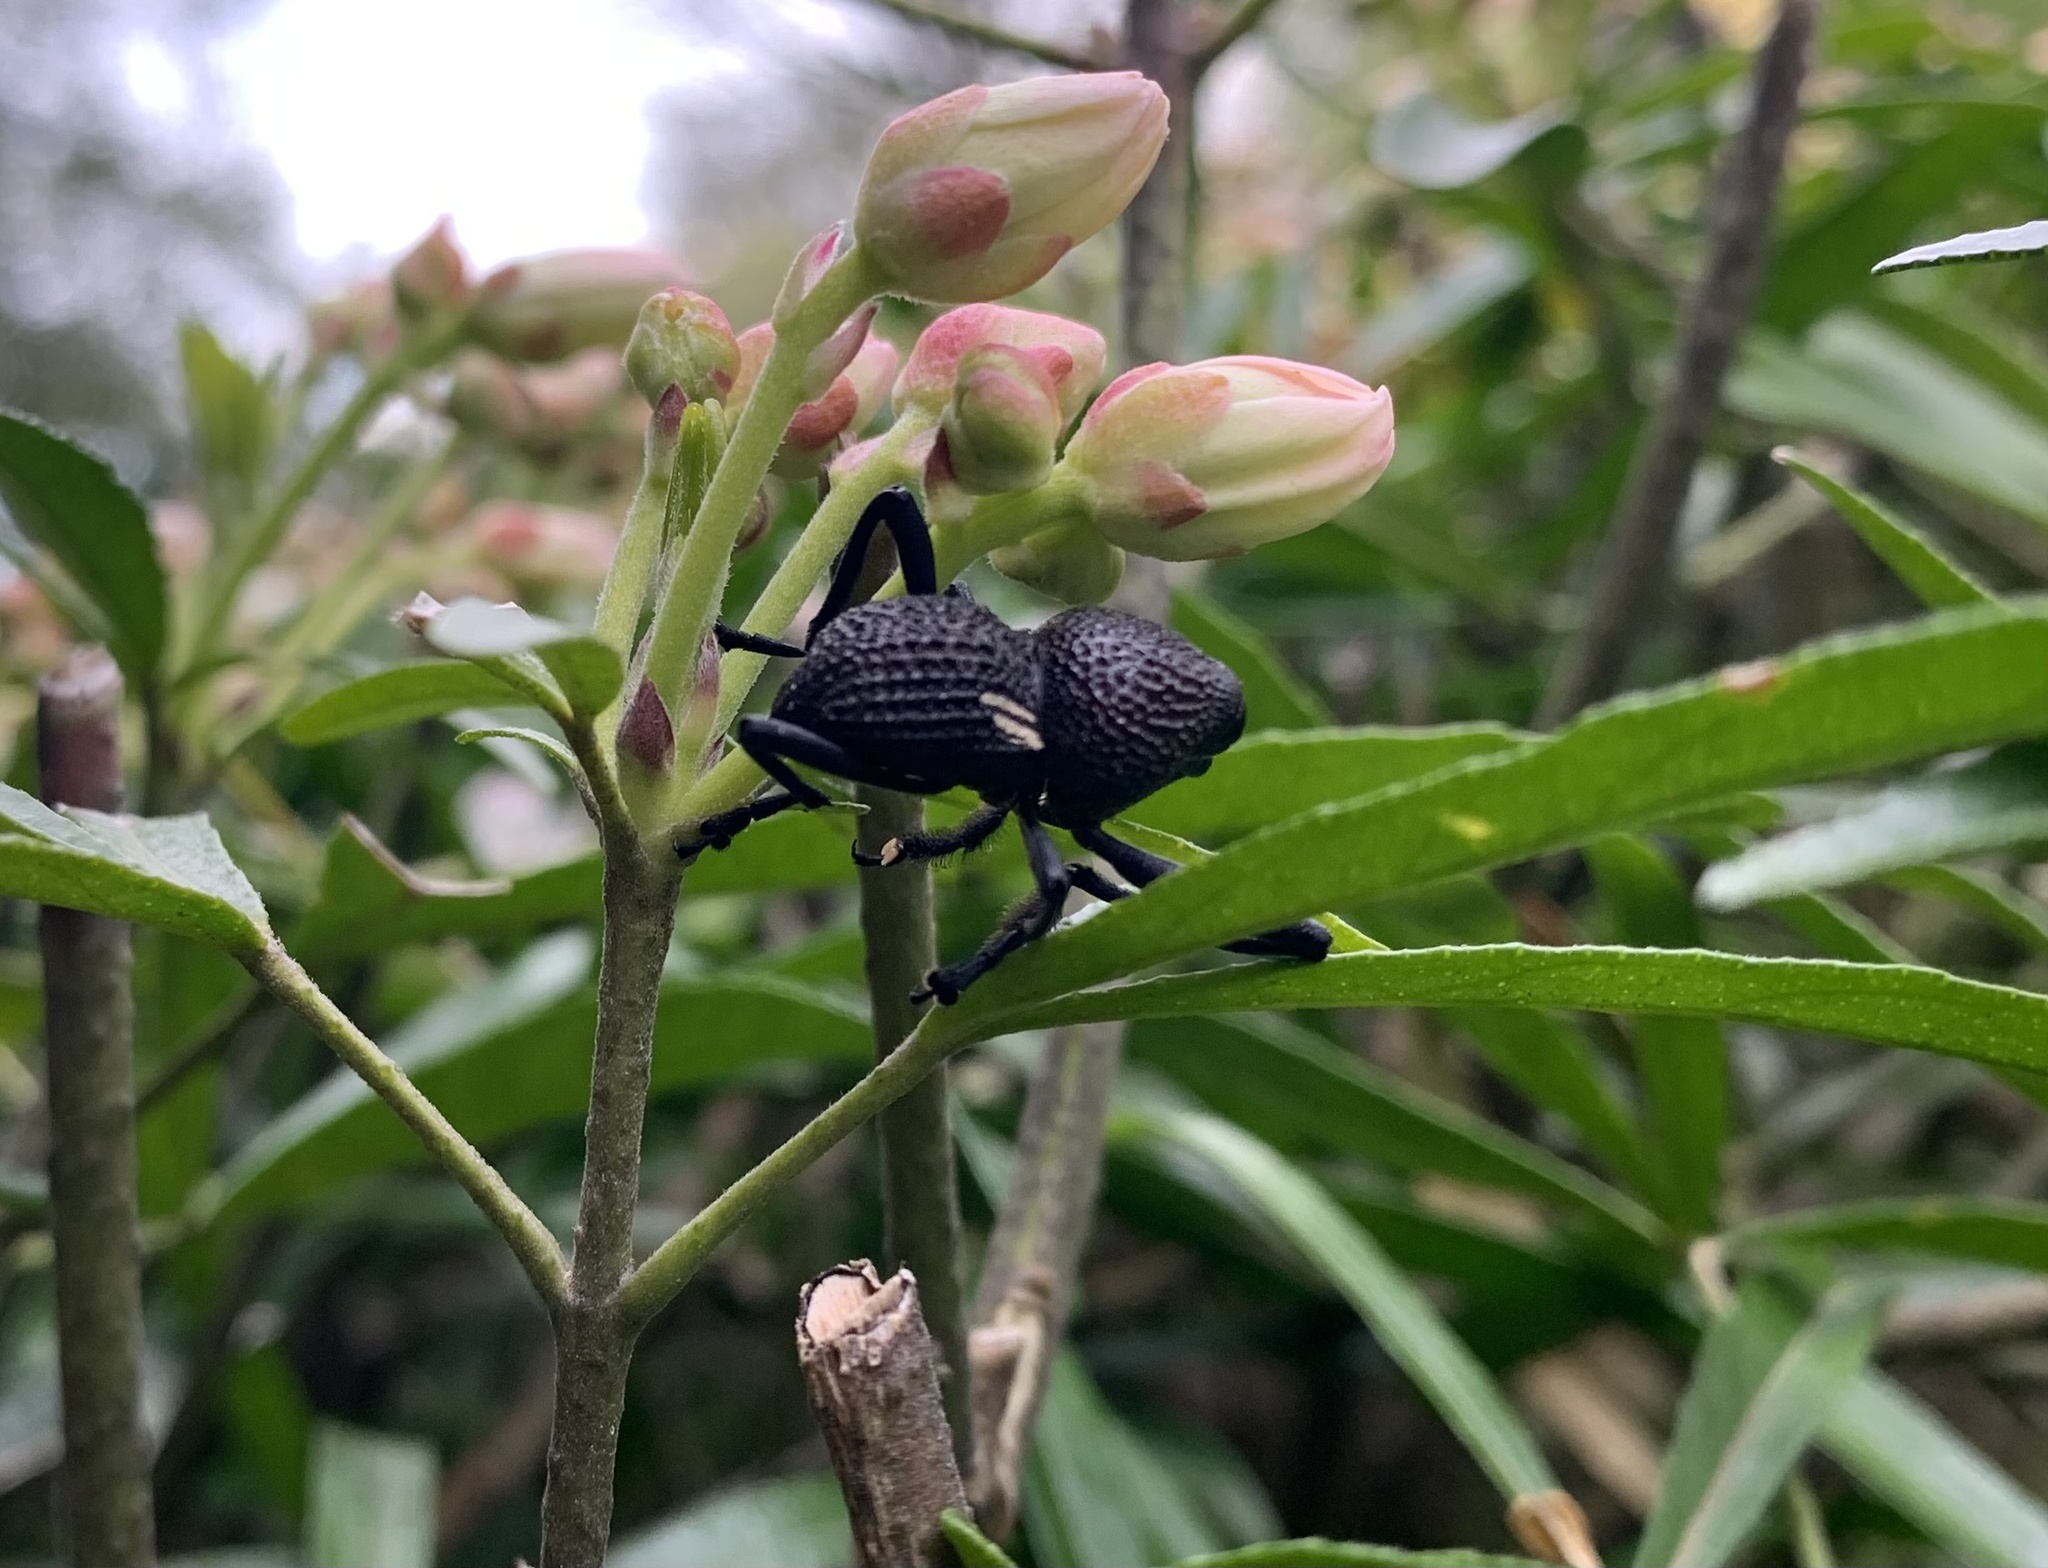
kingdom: Animalia
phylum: Arthropoda
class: Insecta
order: Coleoptera
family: Curculionidae
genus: Rhyephenes
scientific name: Rhyephenes humeralis
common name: Araè±ita chilena del pino
